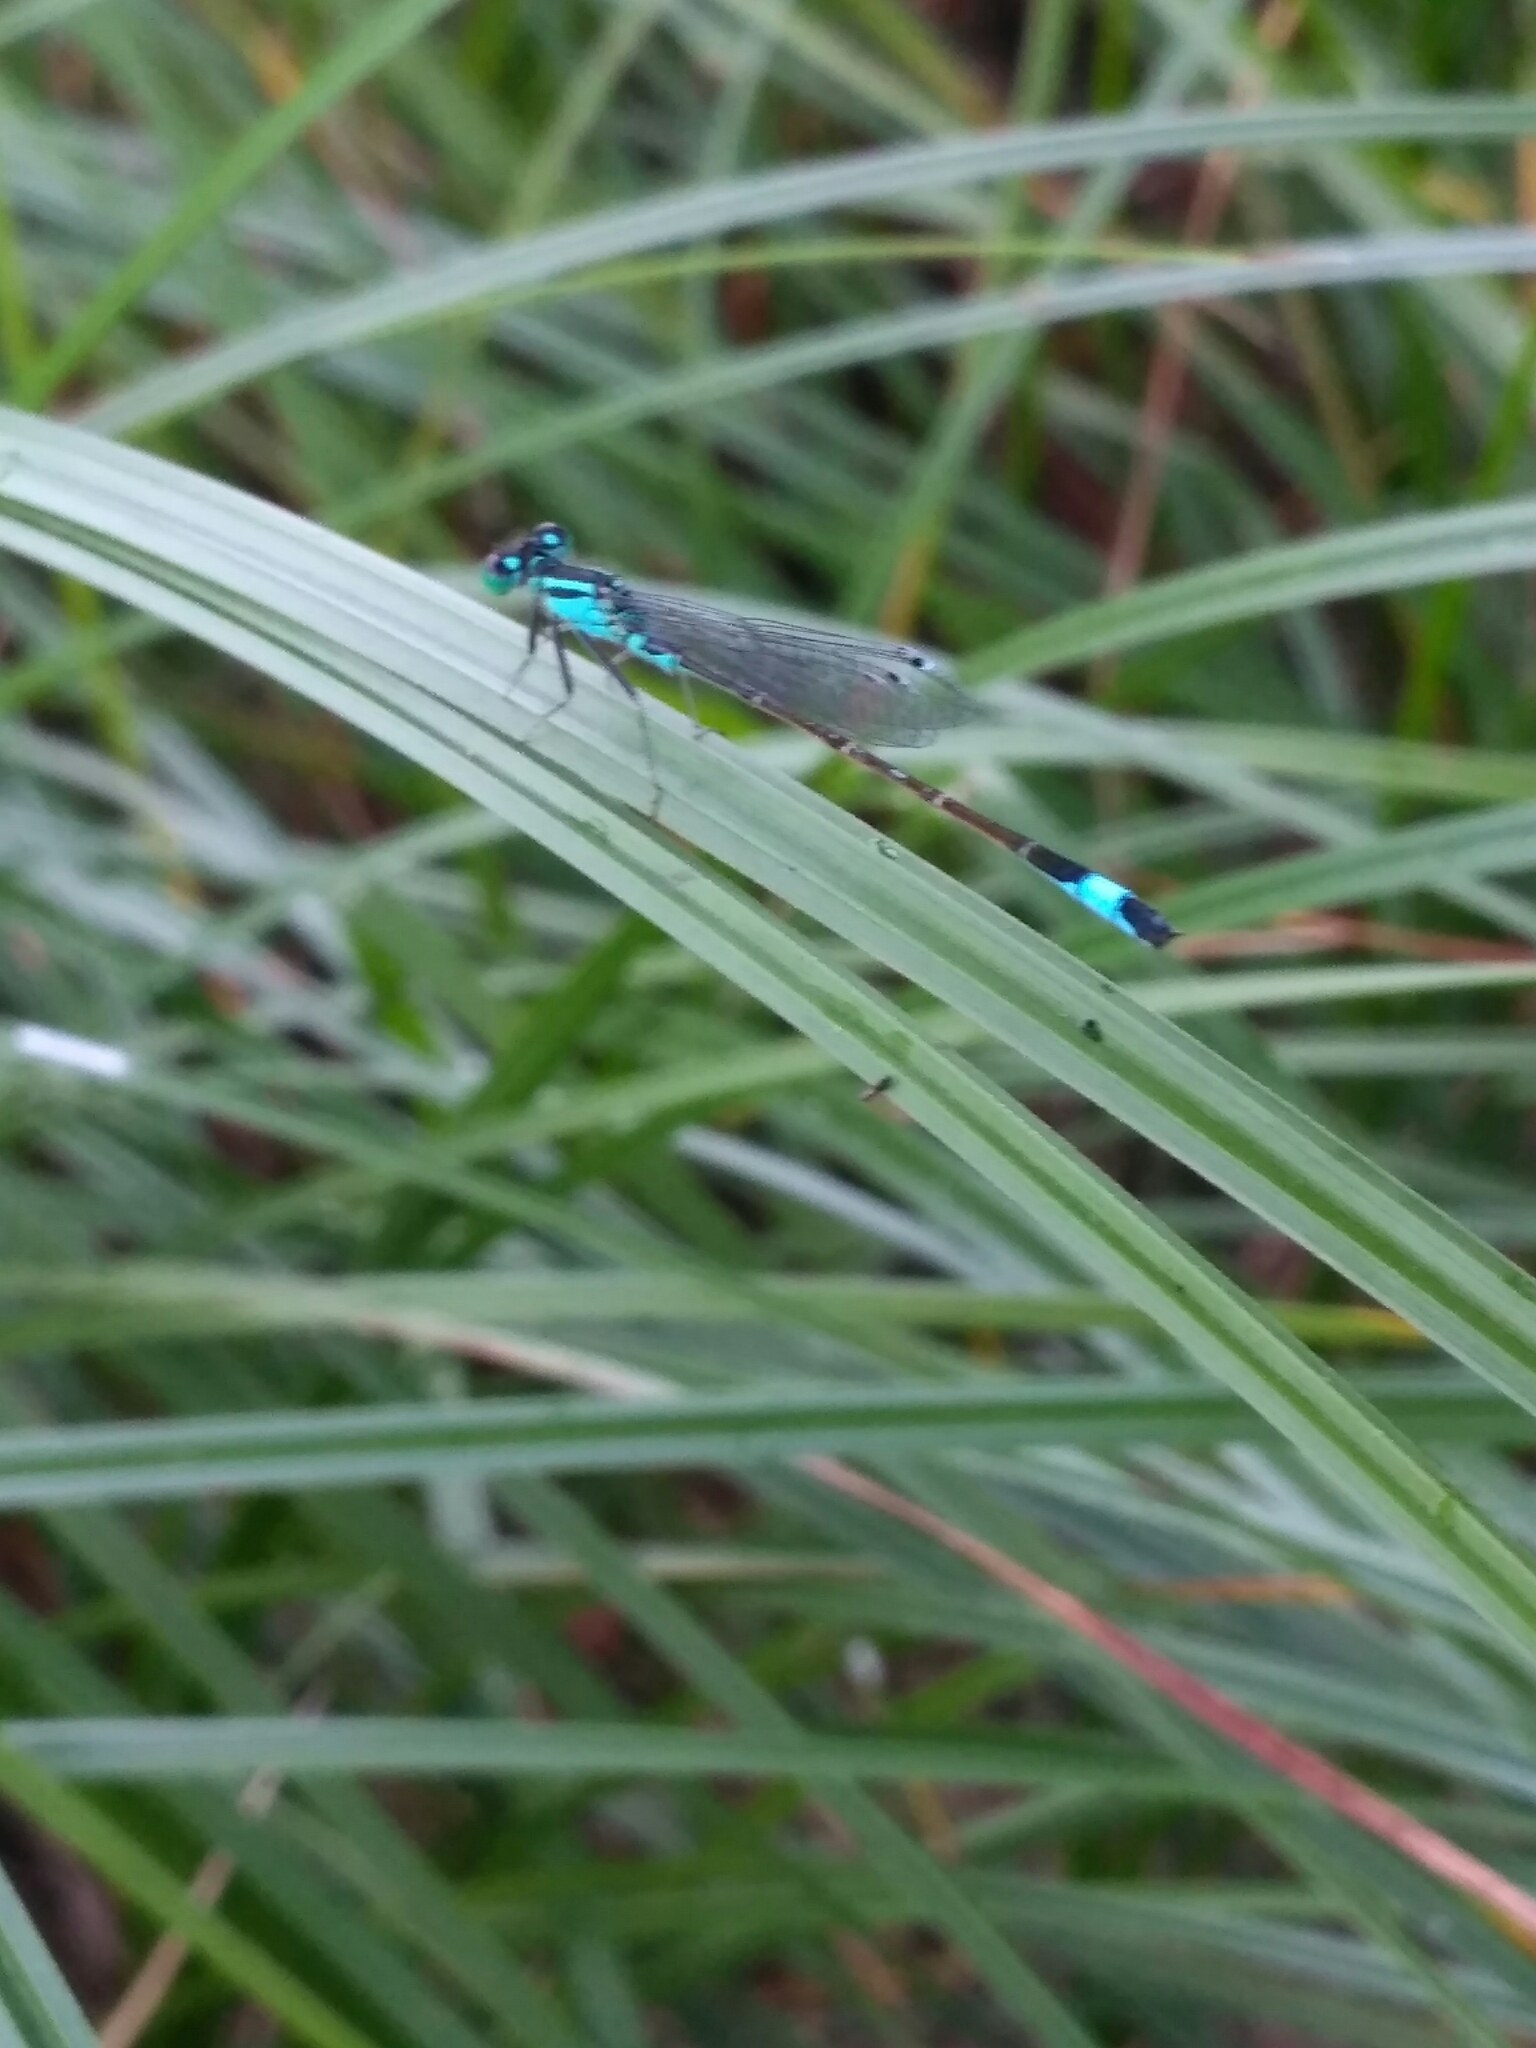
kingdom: Animalia
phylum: Arthropoda
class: Insecta
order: Odonata
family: Coenagrionidae
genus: Ischnura
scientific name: Ischnura elegans
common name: Blue-tailed damselfly
